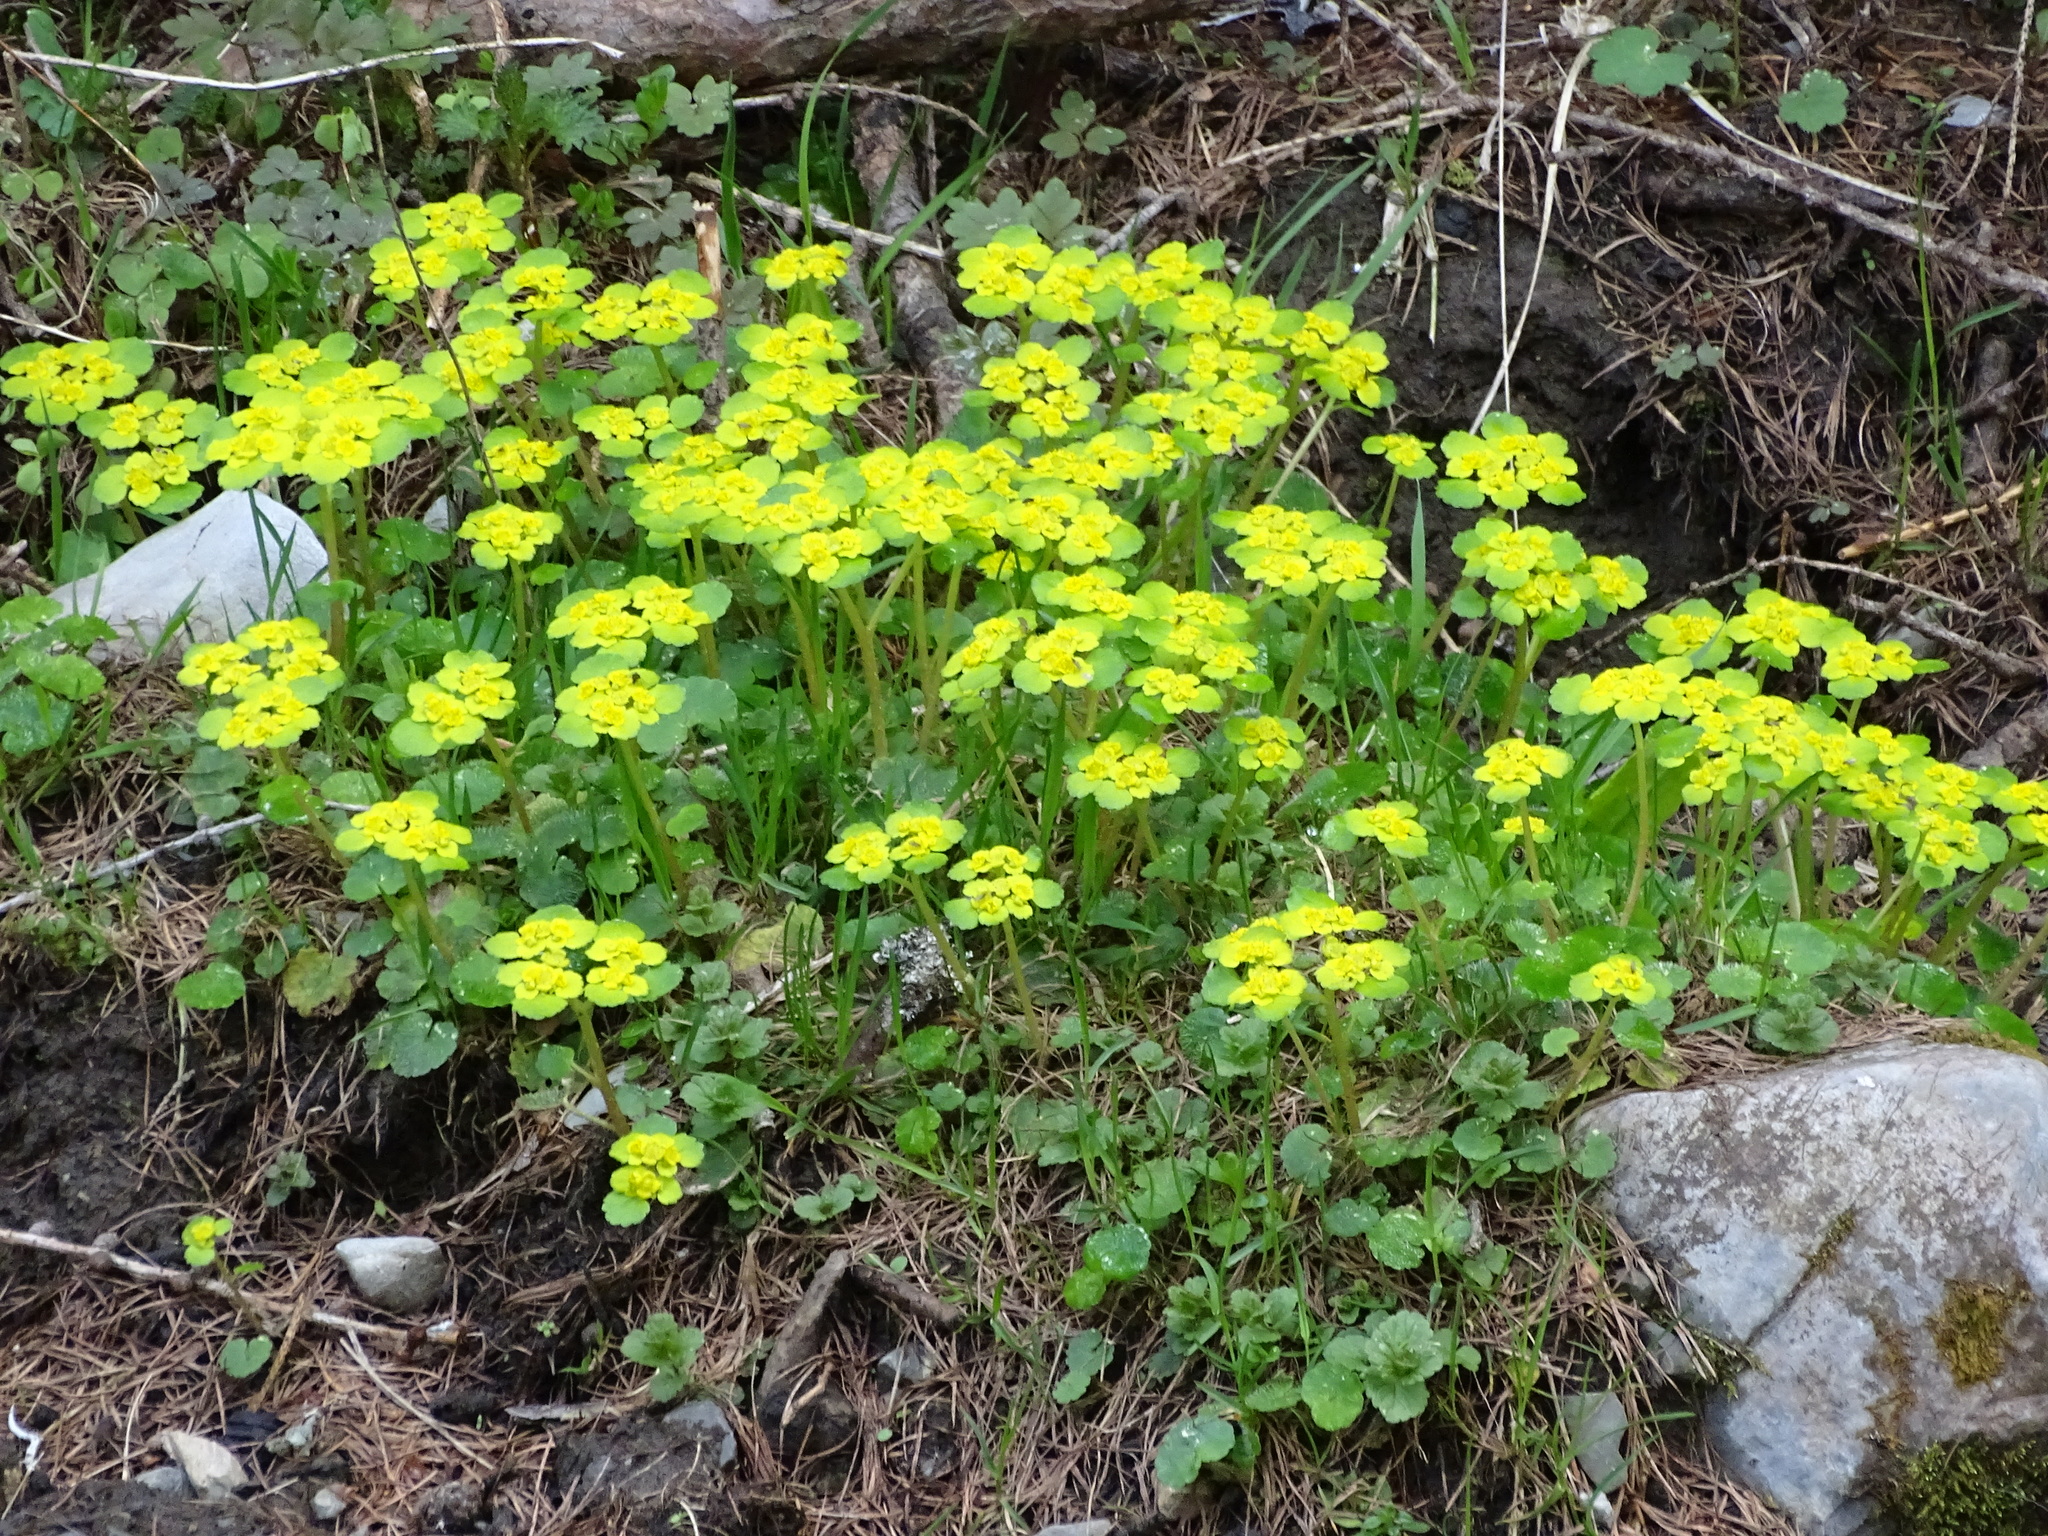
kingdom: Plantae
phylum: Tracheophyta
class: Magnoliopsida
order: Saxifragales
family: Saxifragaceae
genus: Chrysosplenium
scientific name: Chrysosplenium alternifolium
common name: Alternate-leaved golden-saxifrage
